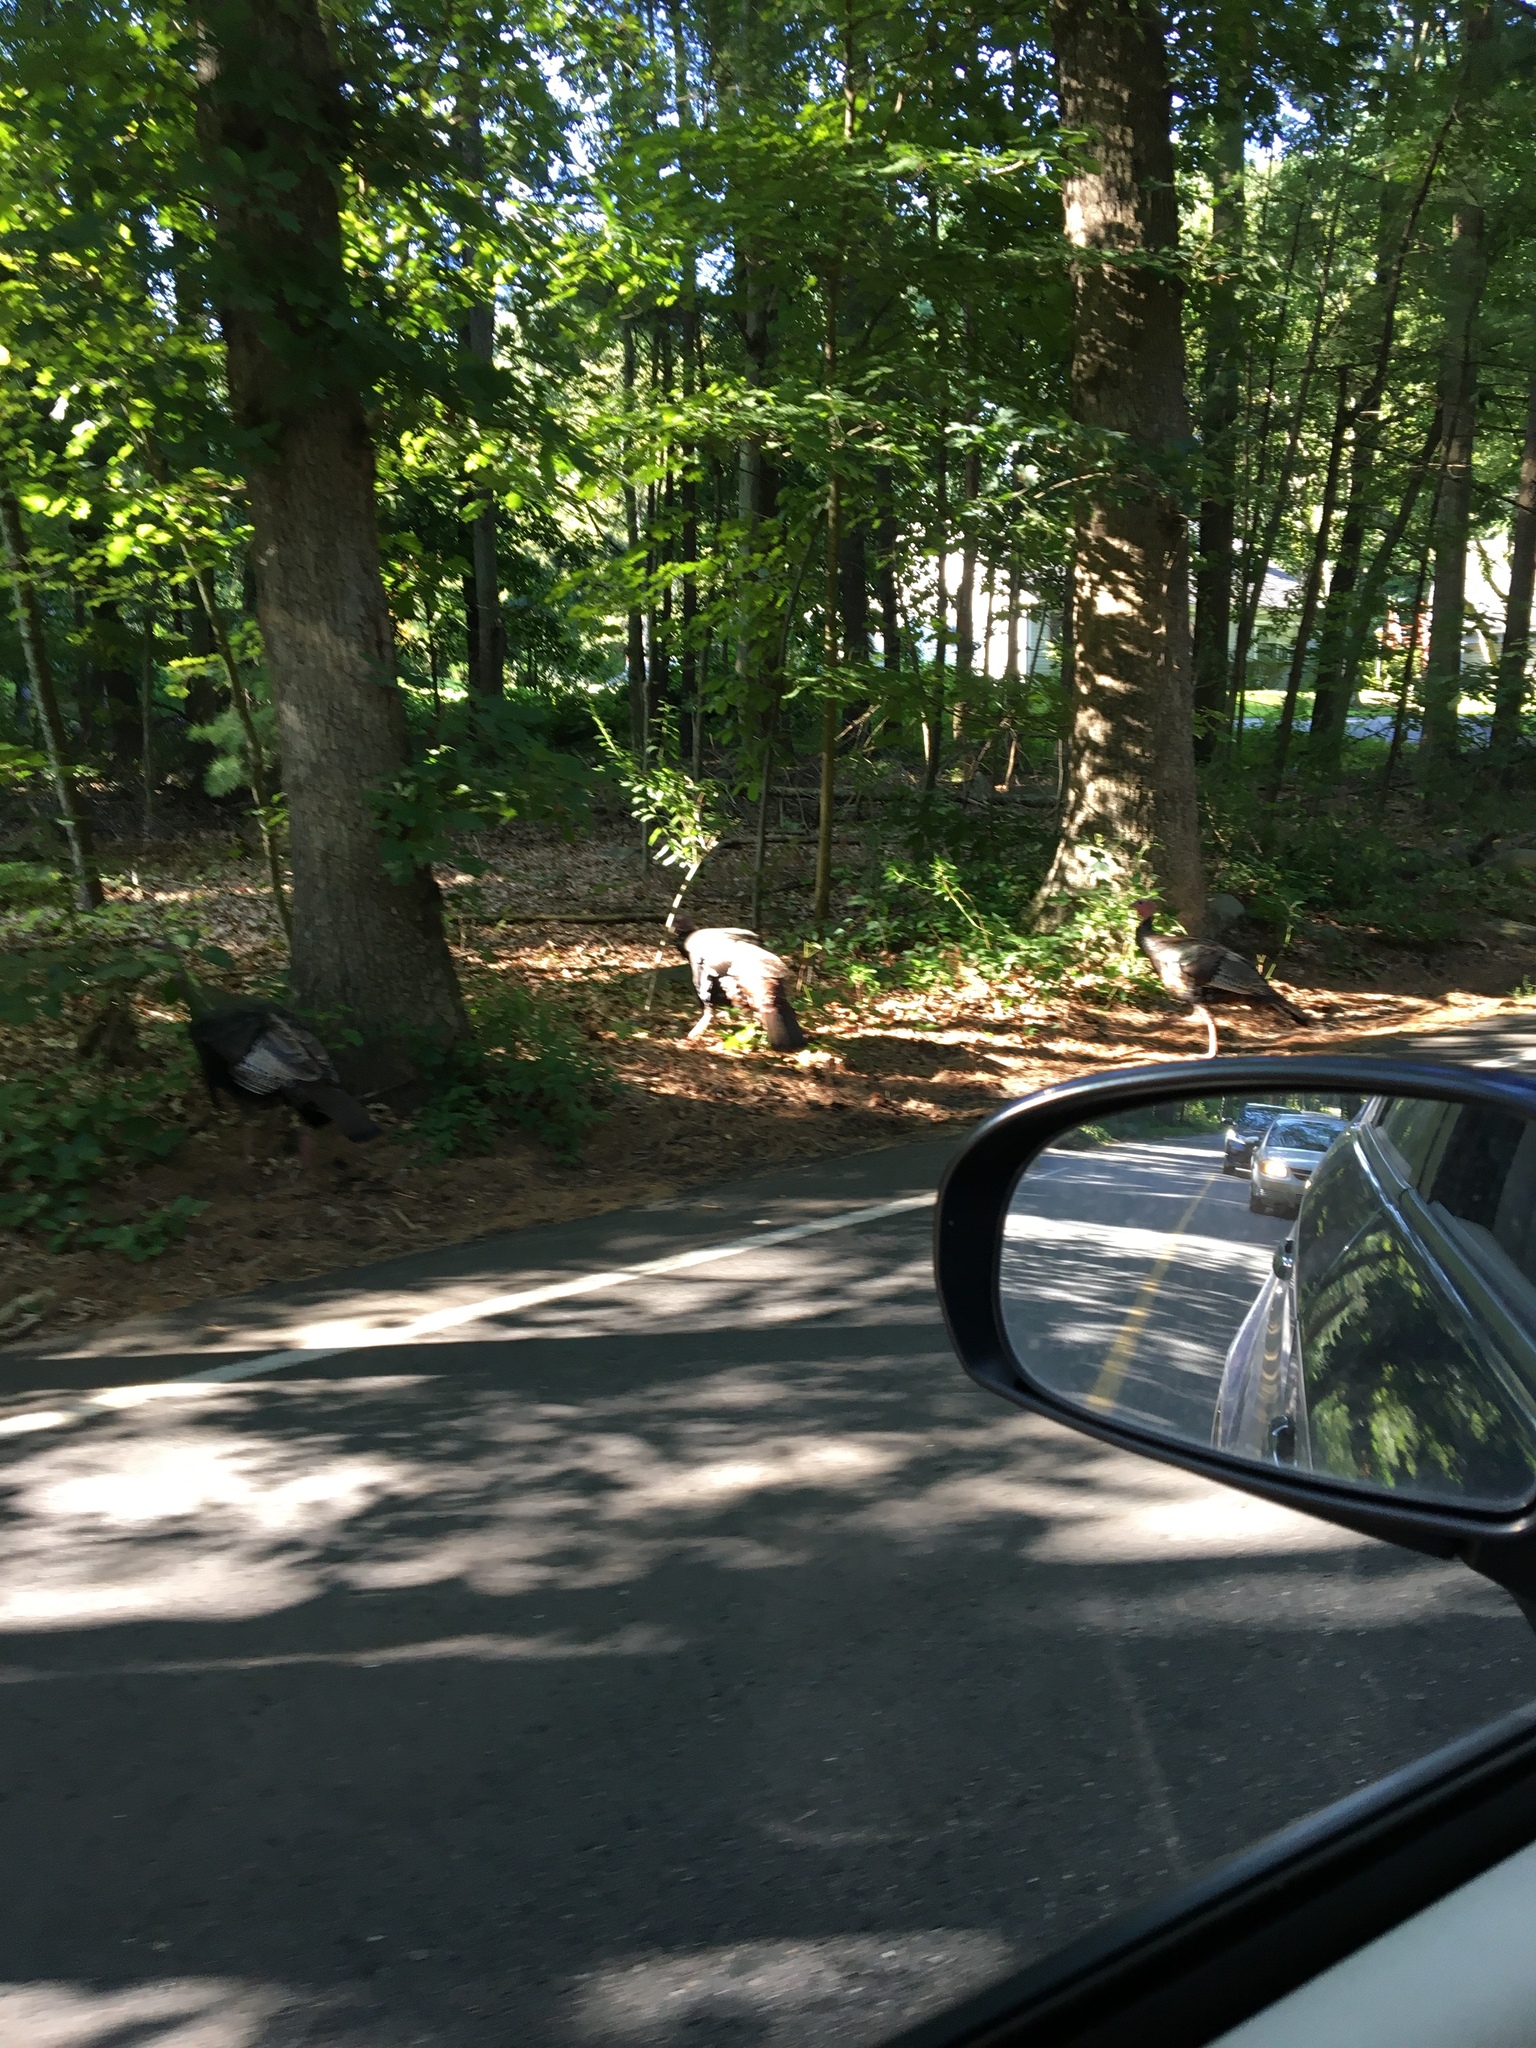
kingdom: Animalia
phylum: Chordata
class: Aves
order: Galliformes
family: Phasianidae
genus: Meleagris
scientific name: Meleagris gallopavo
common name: Wild turkey
